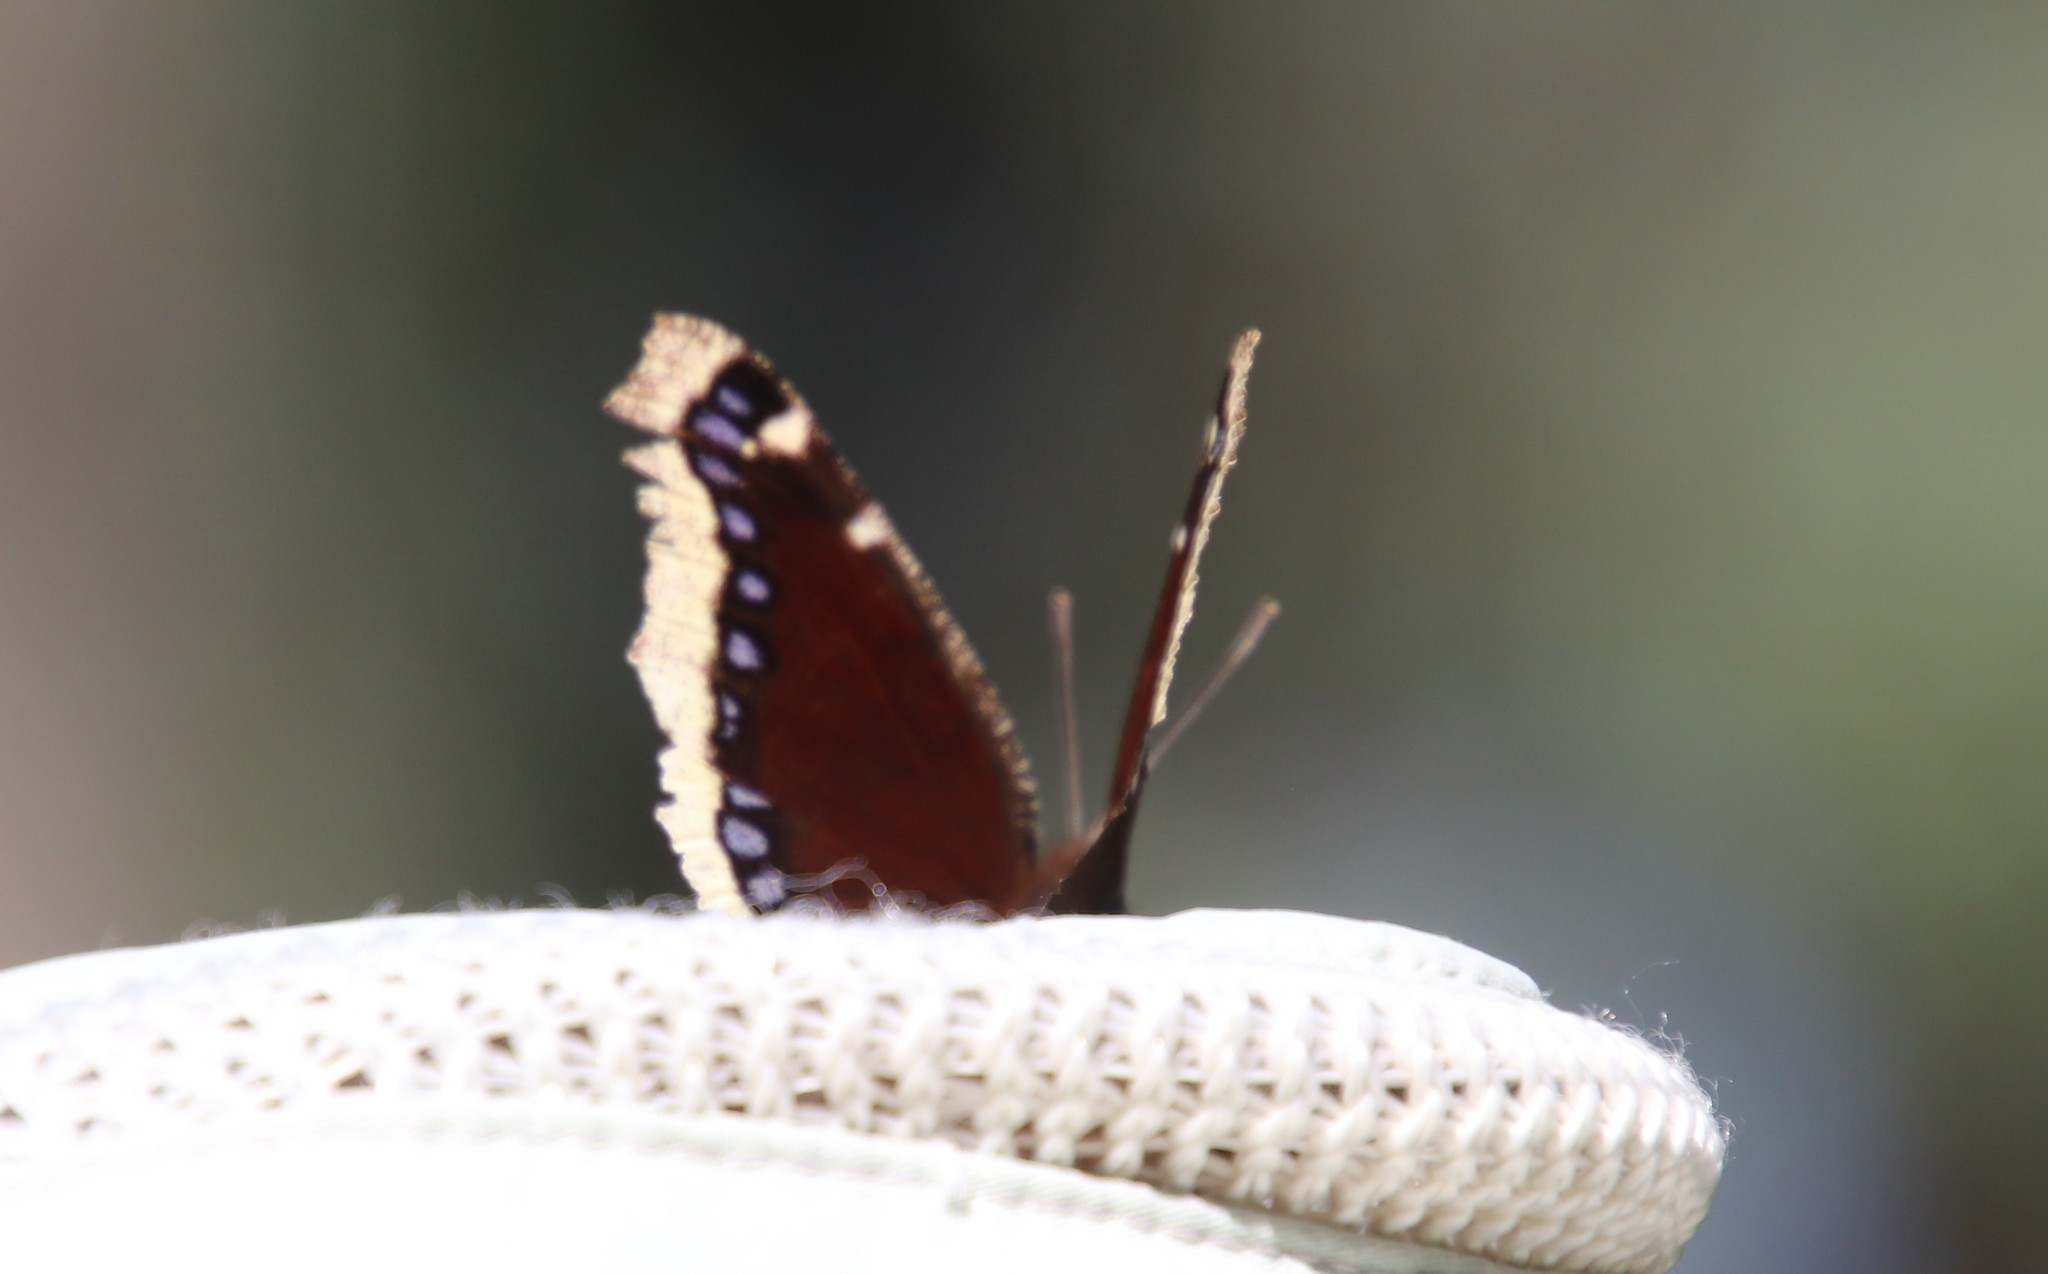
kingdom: Animalia
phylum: Arthropoda
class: Insecta
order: Lepidoptera
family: Nymphalidae
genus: Nymphalis
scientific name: Nymphalis antiopa
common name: Camberwell beauty
